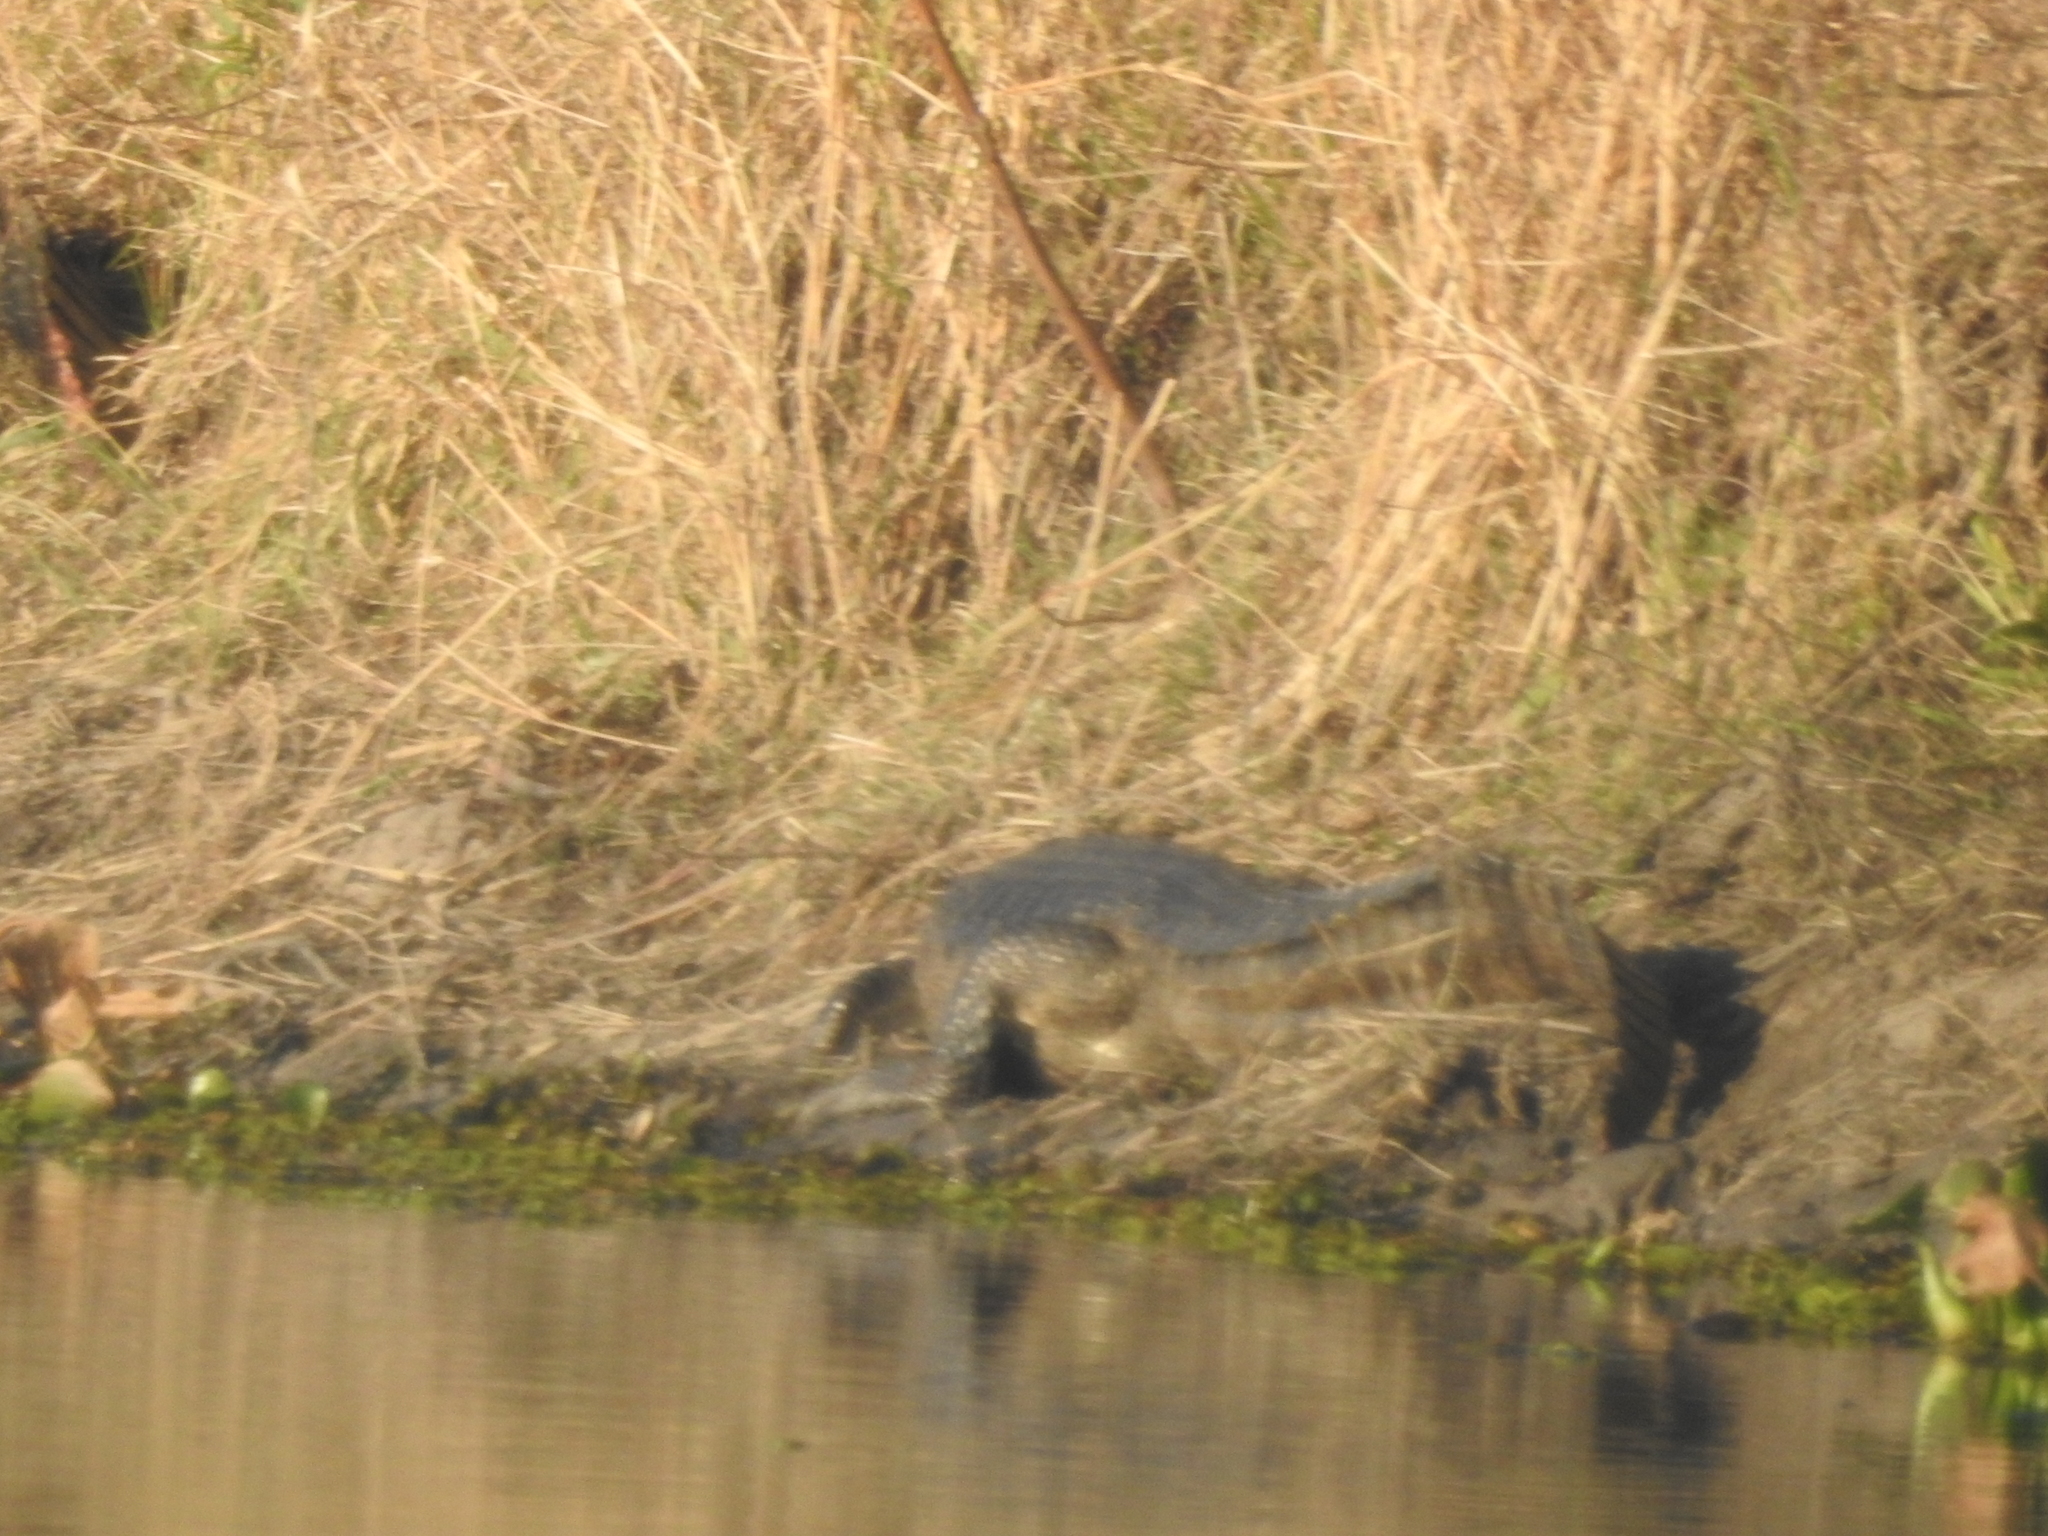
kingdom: Animalia
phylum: Chordata
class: Crocodylia
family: Alligatoridae
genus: Caiman
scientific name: Caiman yacare
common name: Yacare caiman
